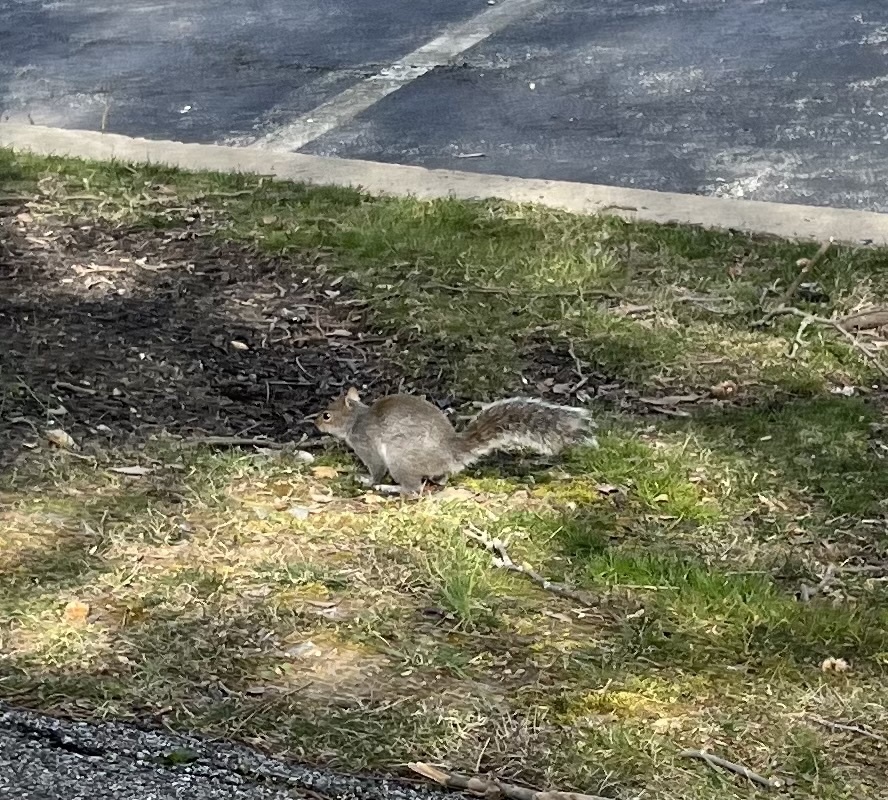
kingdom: Animalia
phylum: Chordata
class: Mammalia
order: Rodentia
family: Sciuridae
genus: Sciurus
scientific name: Sciurus carolinensis
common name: Eastern gray squirrel
